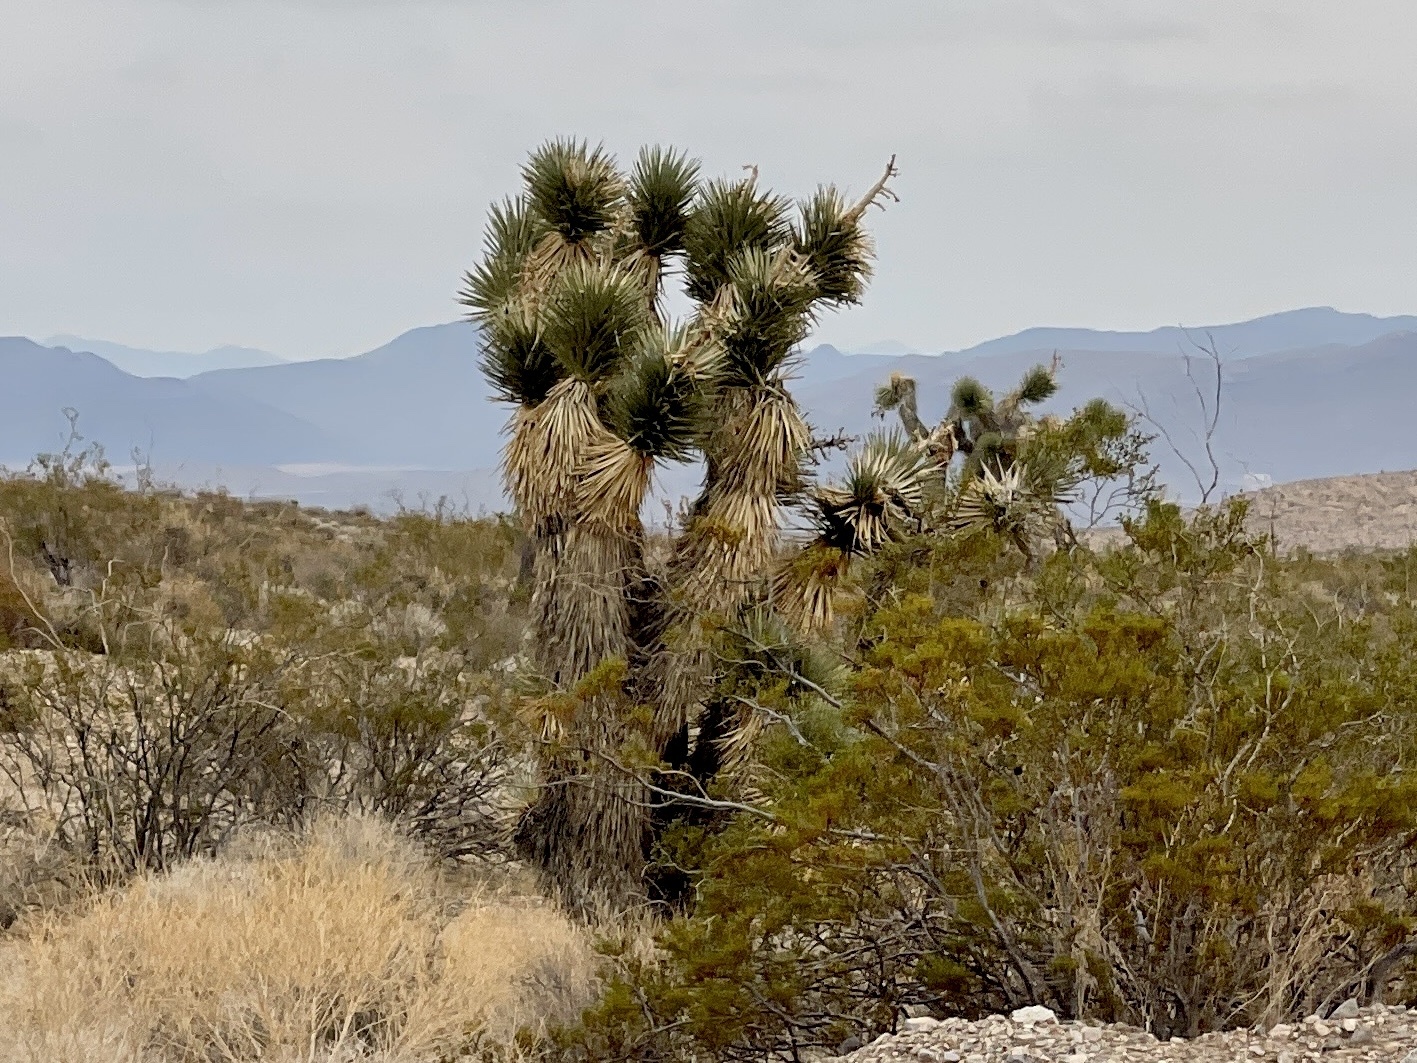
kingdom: Plantae
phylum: Tracheophyta
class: Liliopsida
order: Asparagales
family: Asparagaceae
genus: Yucca
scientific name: Yucca brevifolia
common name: Joshua tree
